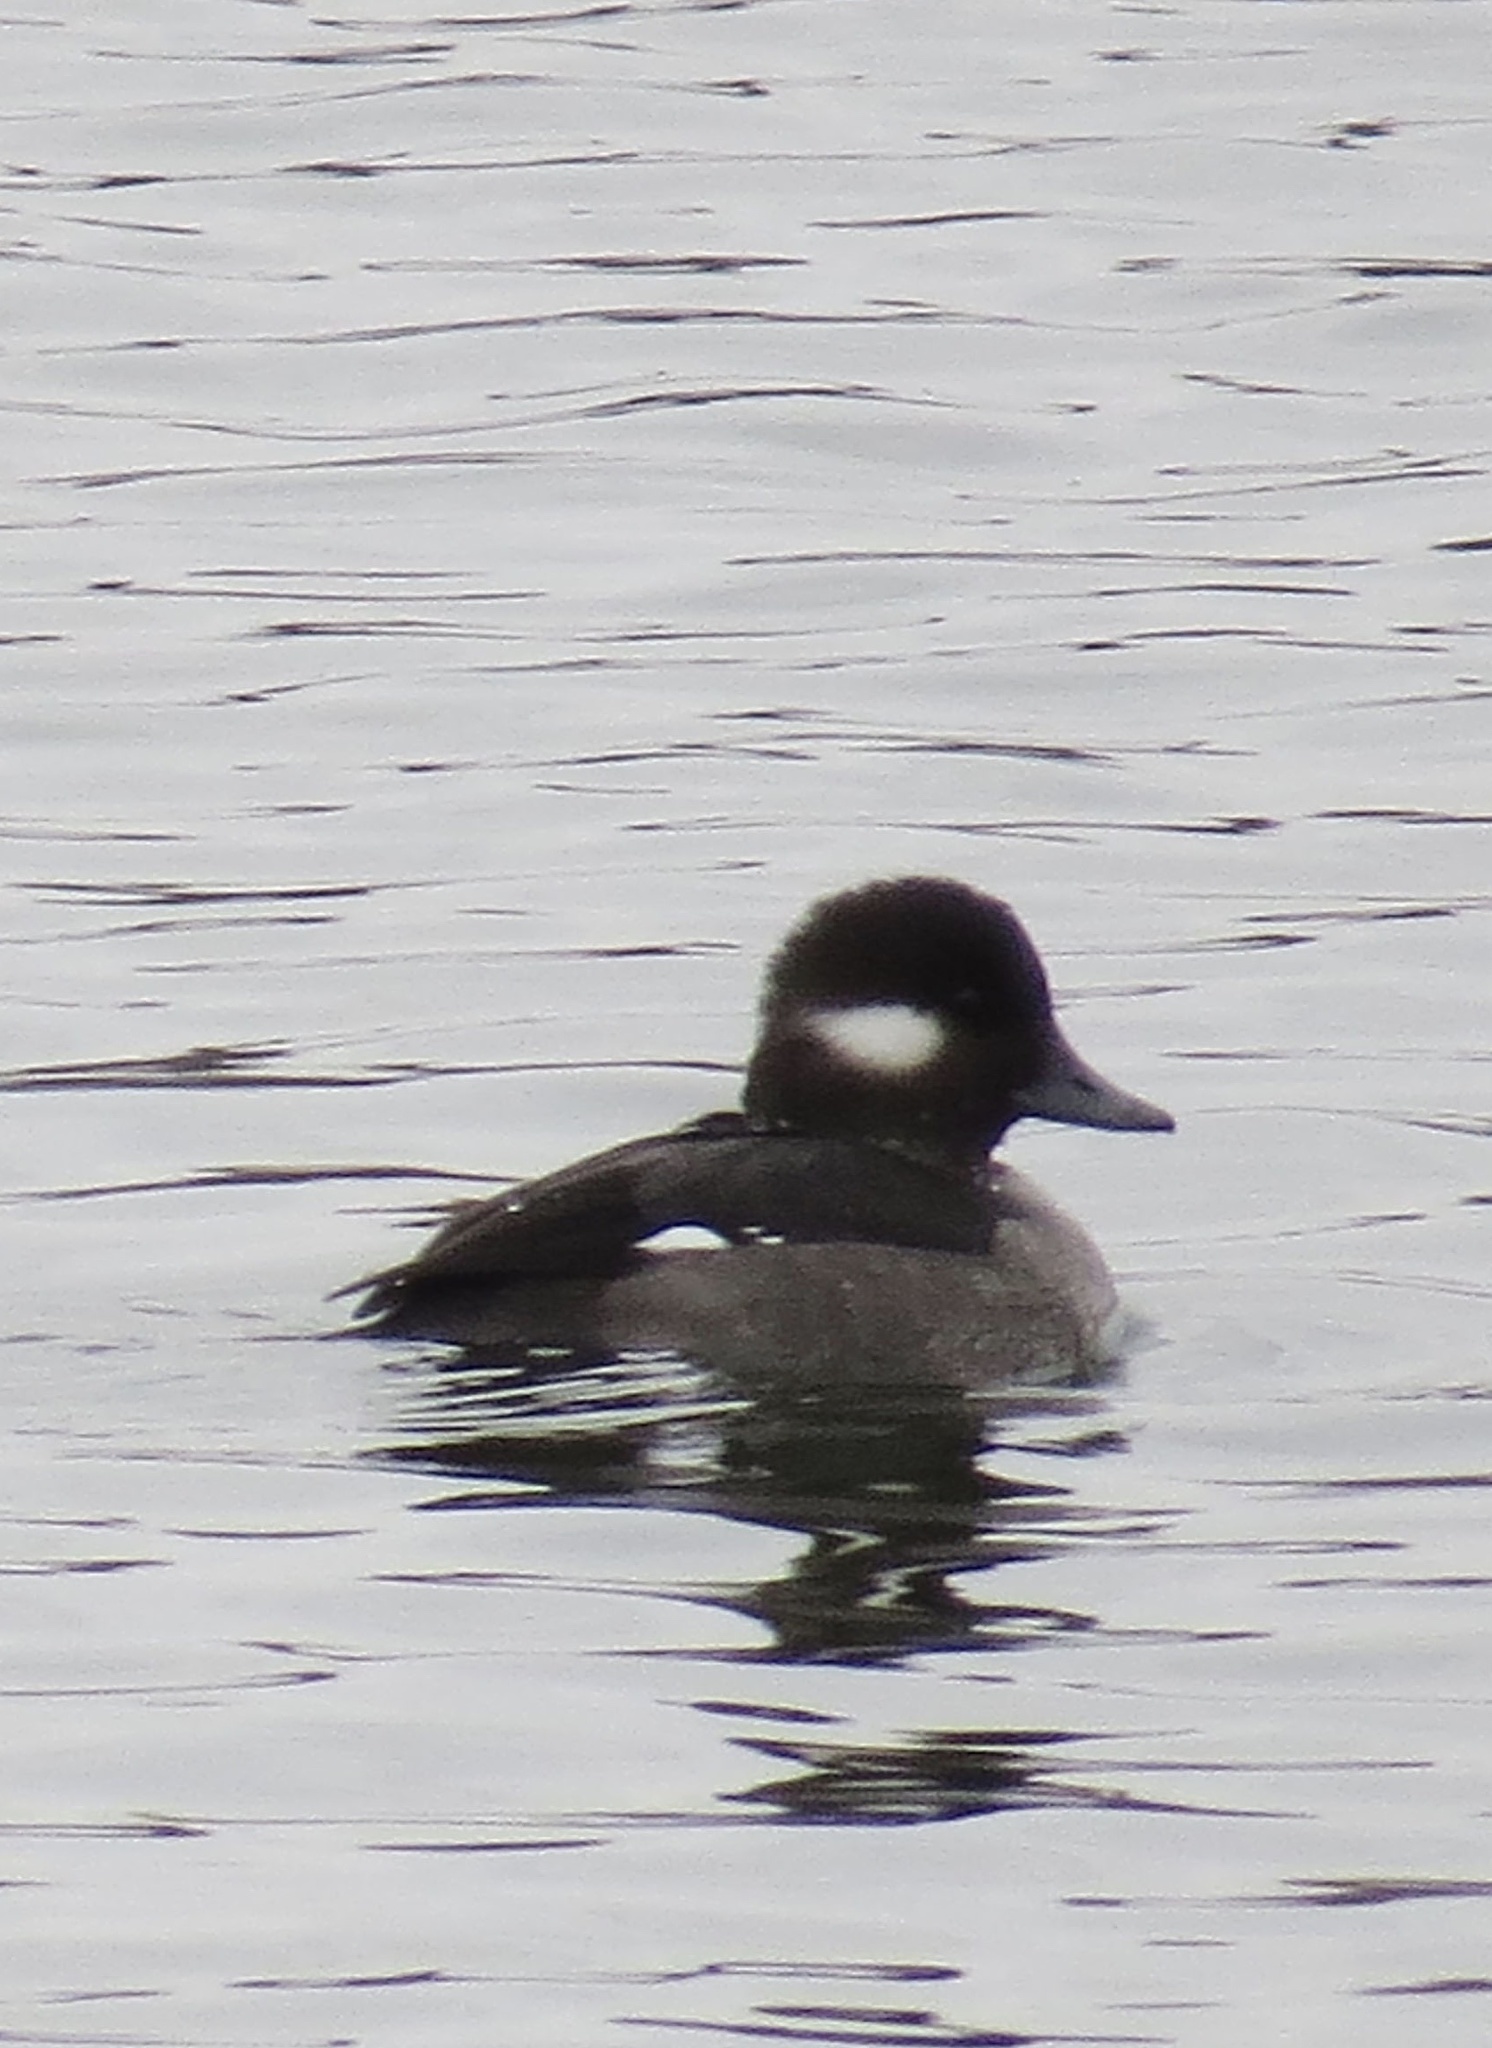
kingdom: Animalia
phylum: Chordata
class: Aves
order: Anseriformes
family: Anatidae
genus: Bucephala
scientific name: Bucephala albeola
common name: Bufflehead
